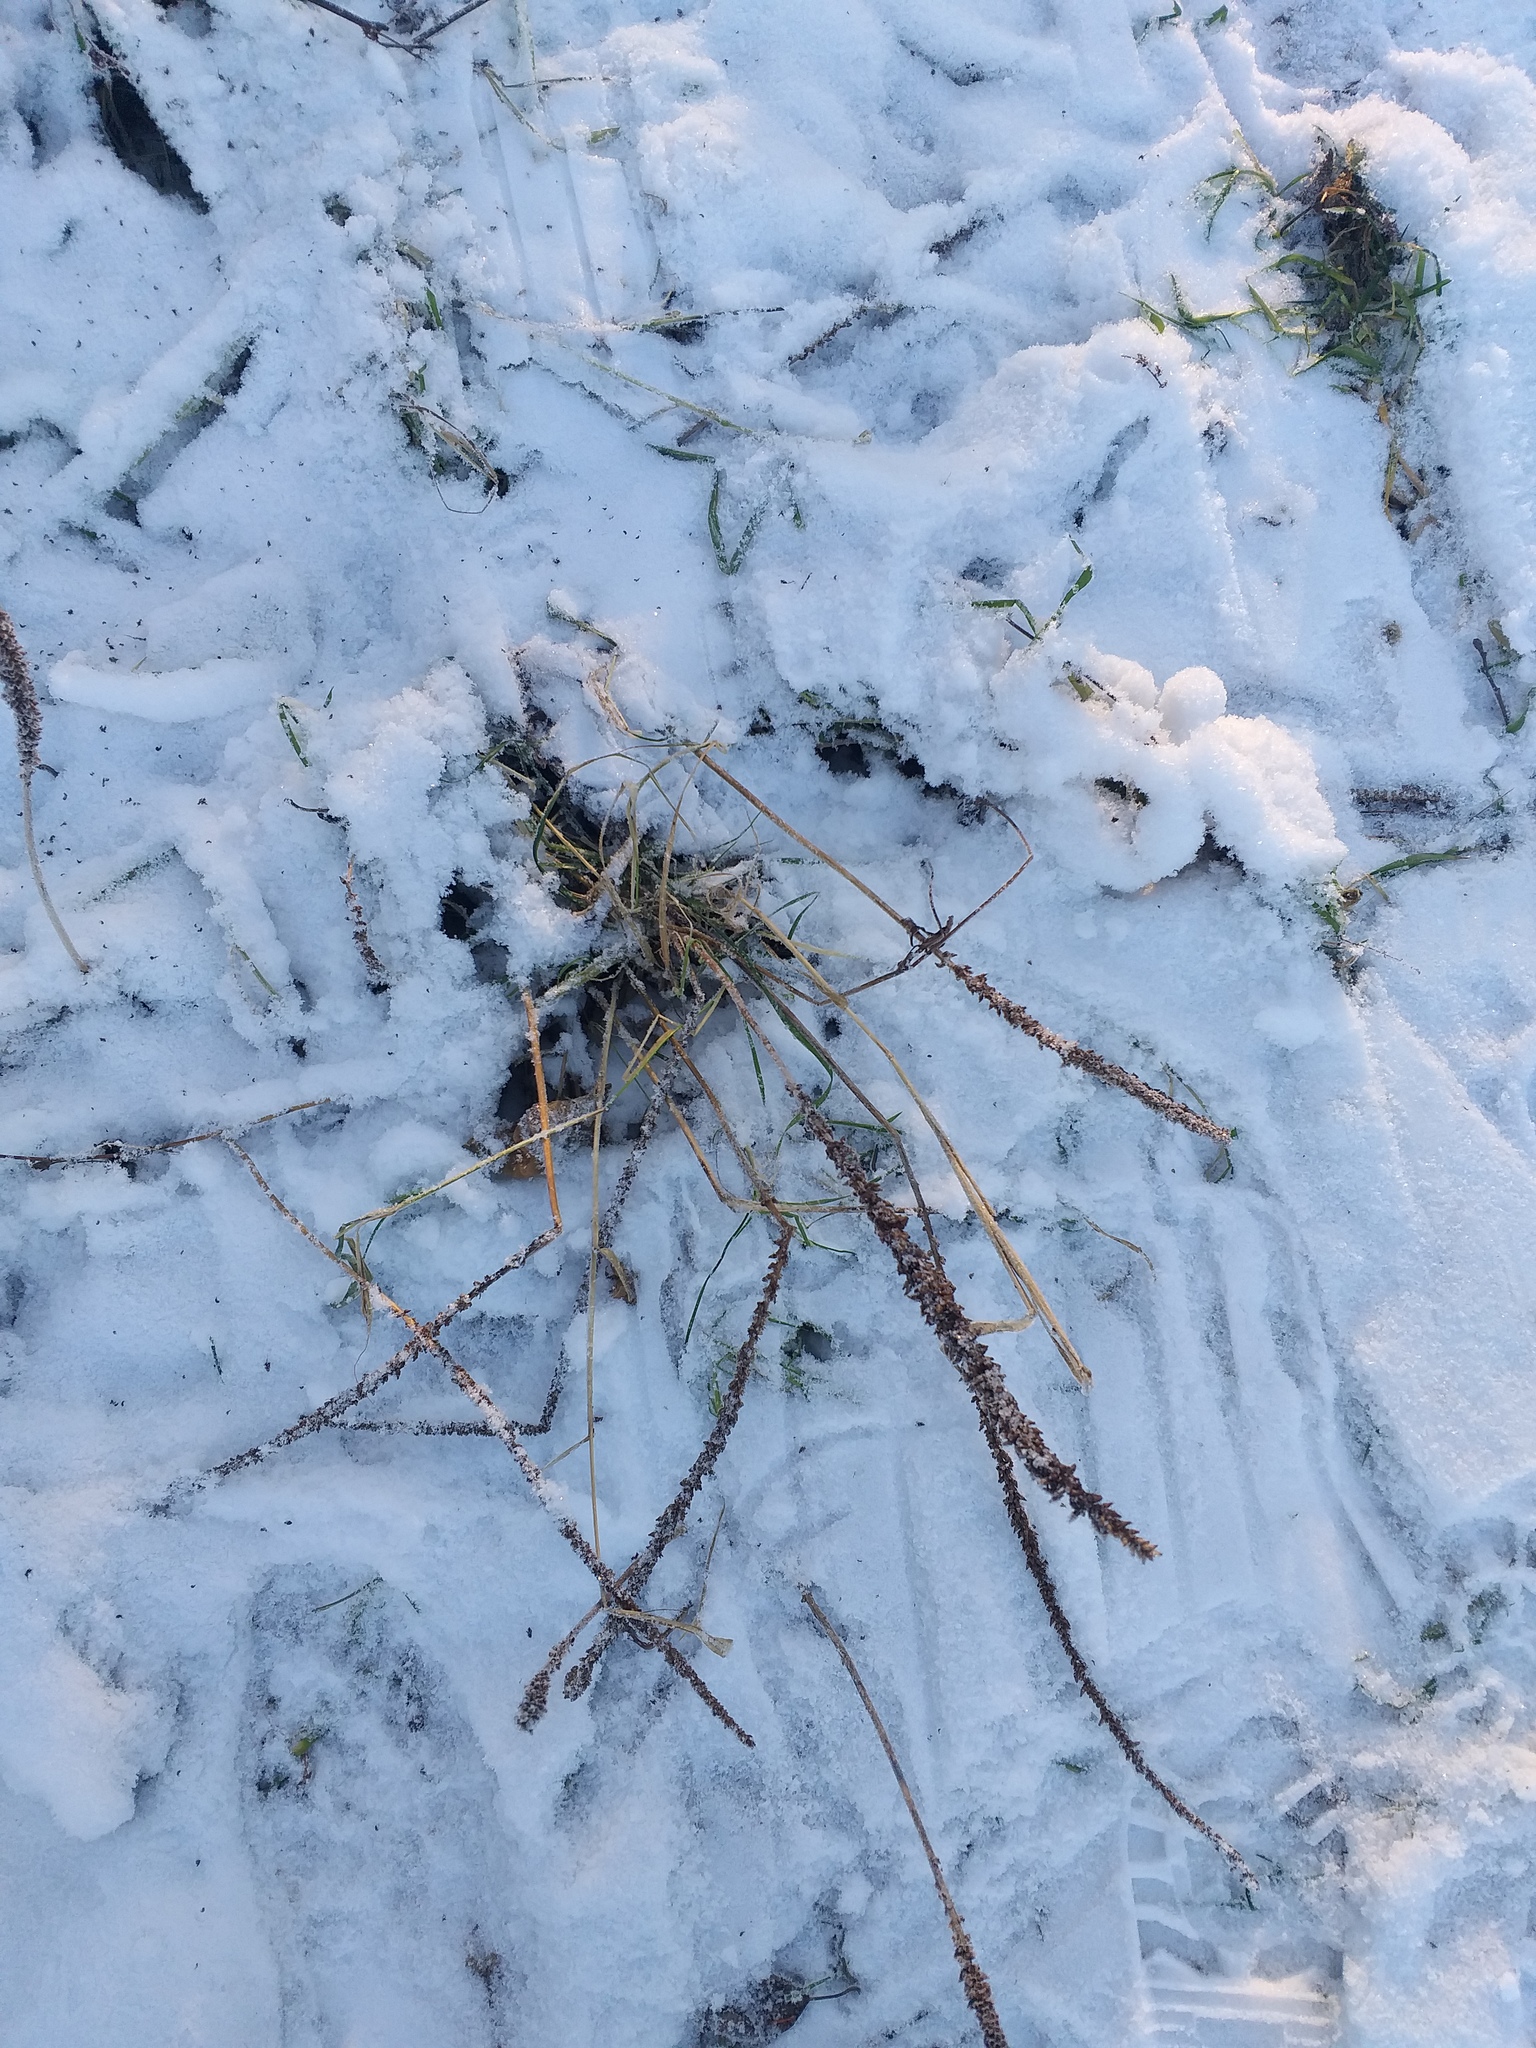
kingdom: Plantae
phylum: Tracheophyta
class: Magnoliopsida
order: Lamiales
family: Plantaginaceae
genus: Plantago
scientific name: Plantago major
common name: Common plantain
